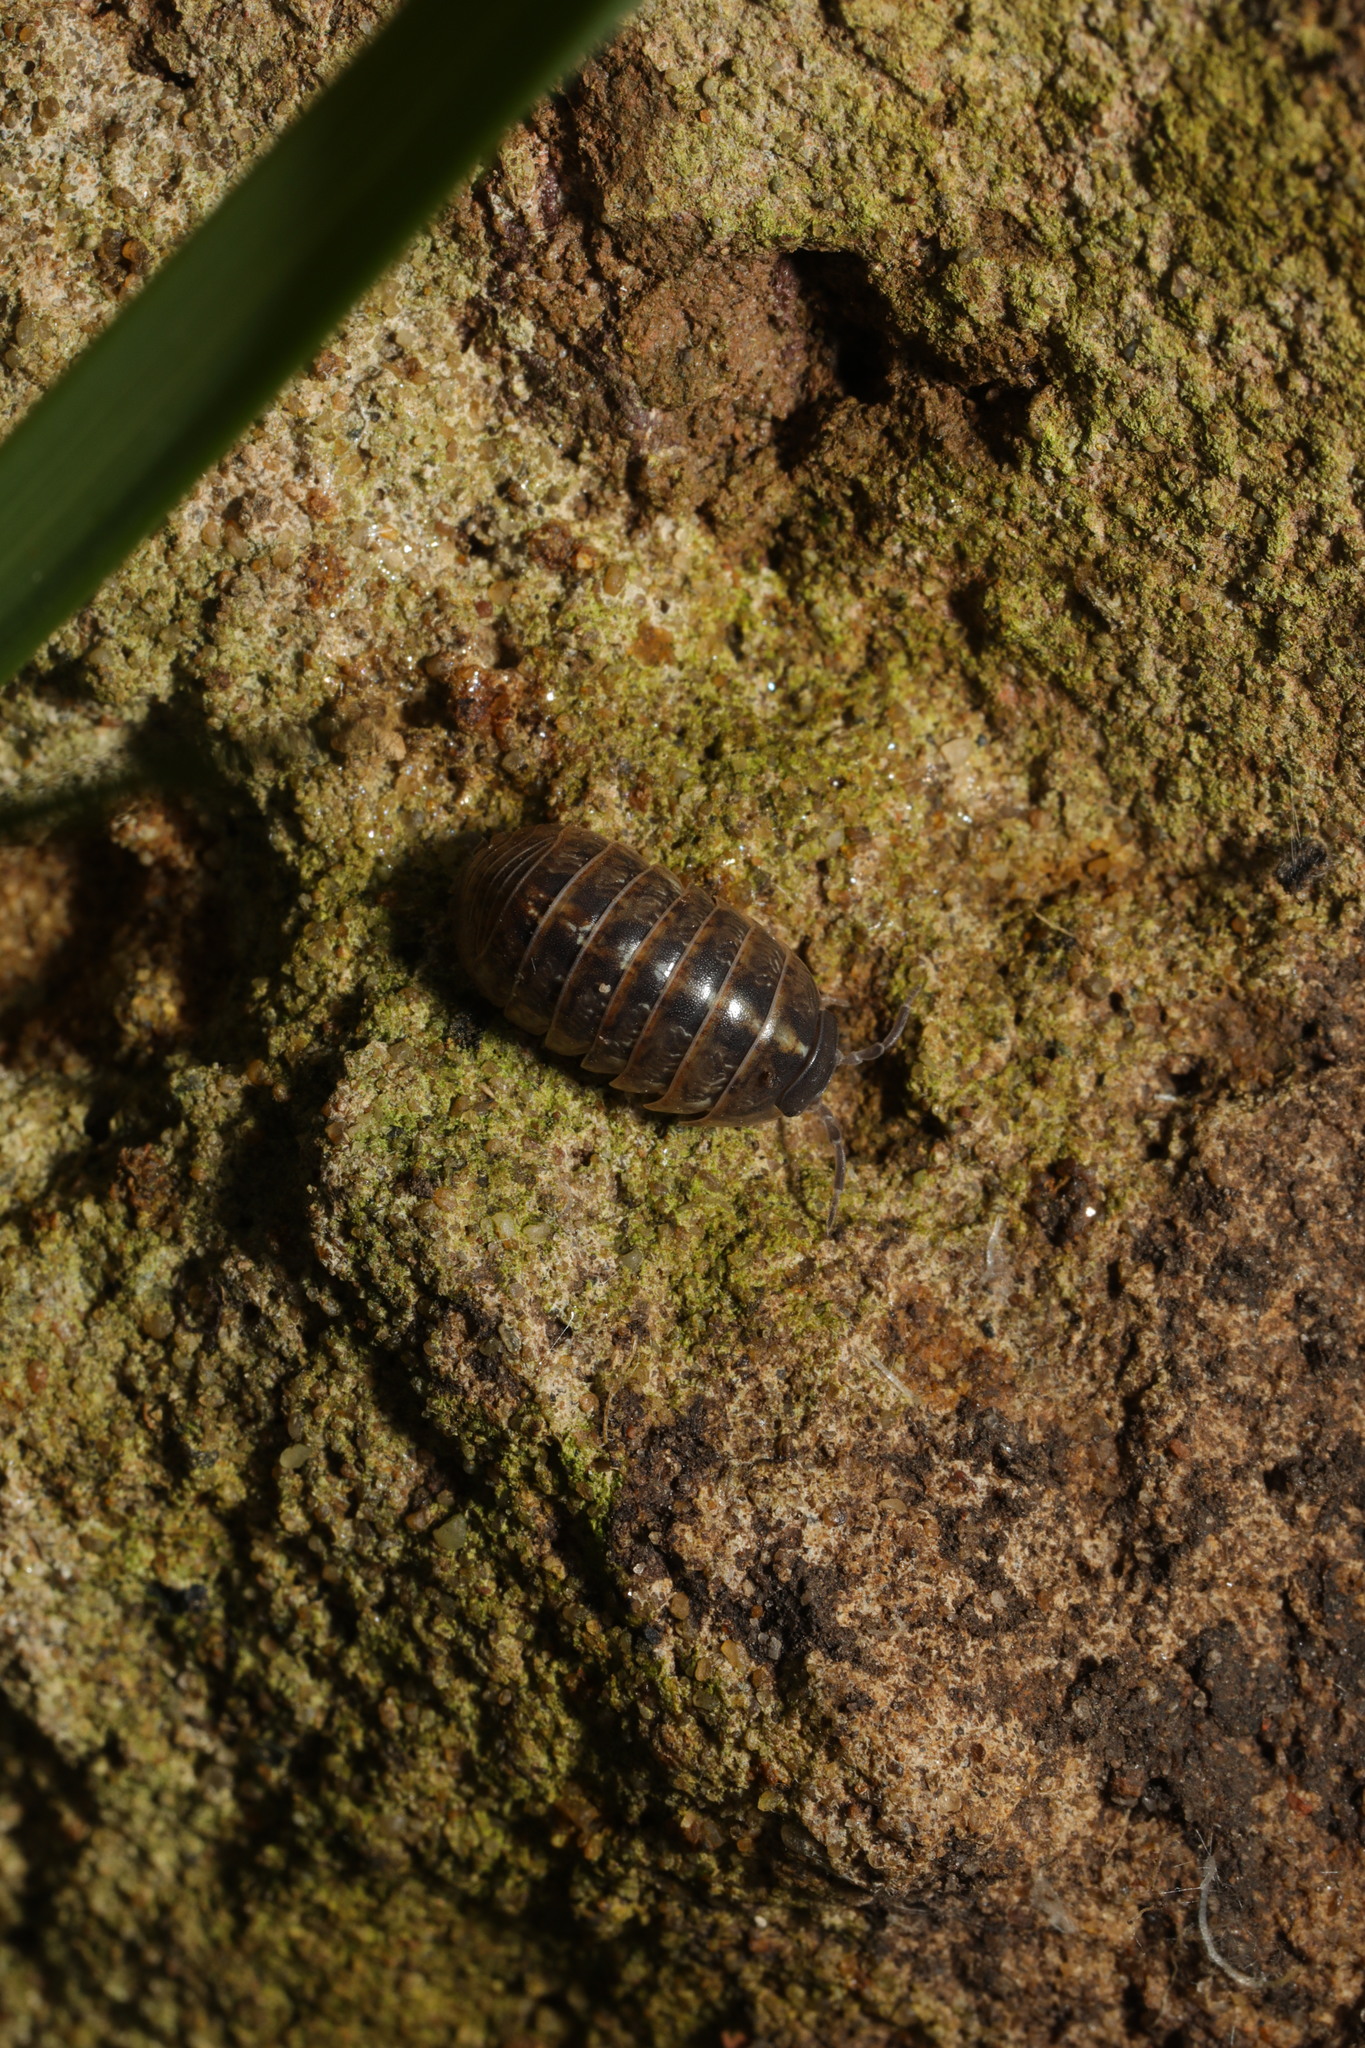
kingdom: Animalia
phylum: Arthropoda
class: Malacostraca
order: Isopoda
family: Armadillidiidae
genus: Armadillidium
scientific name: Armadillidium vulgare
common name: Common pill woodlouse
